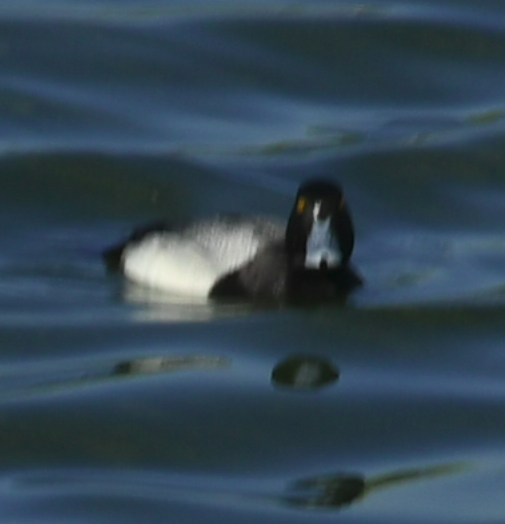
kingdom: Animalia
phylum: Chordata
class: Aves
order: Anseriformes
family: Anatidae
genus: Aythya
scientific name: Aythya affinis
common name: Lesser scaup
